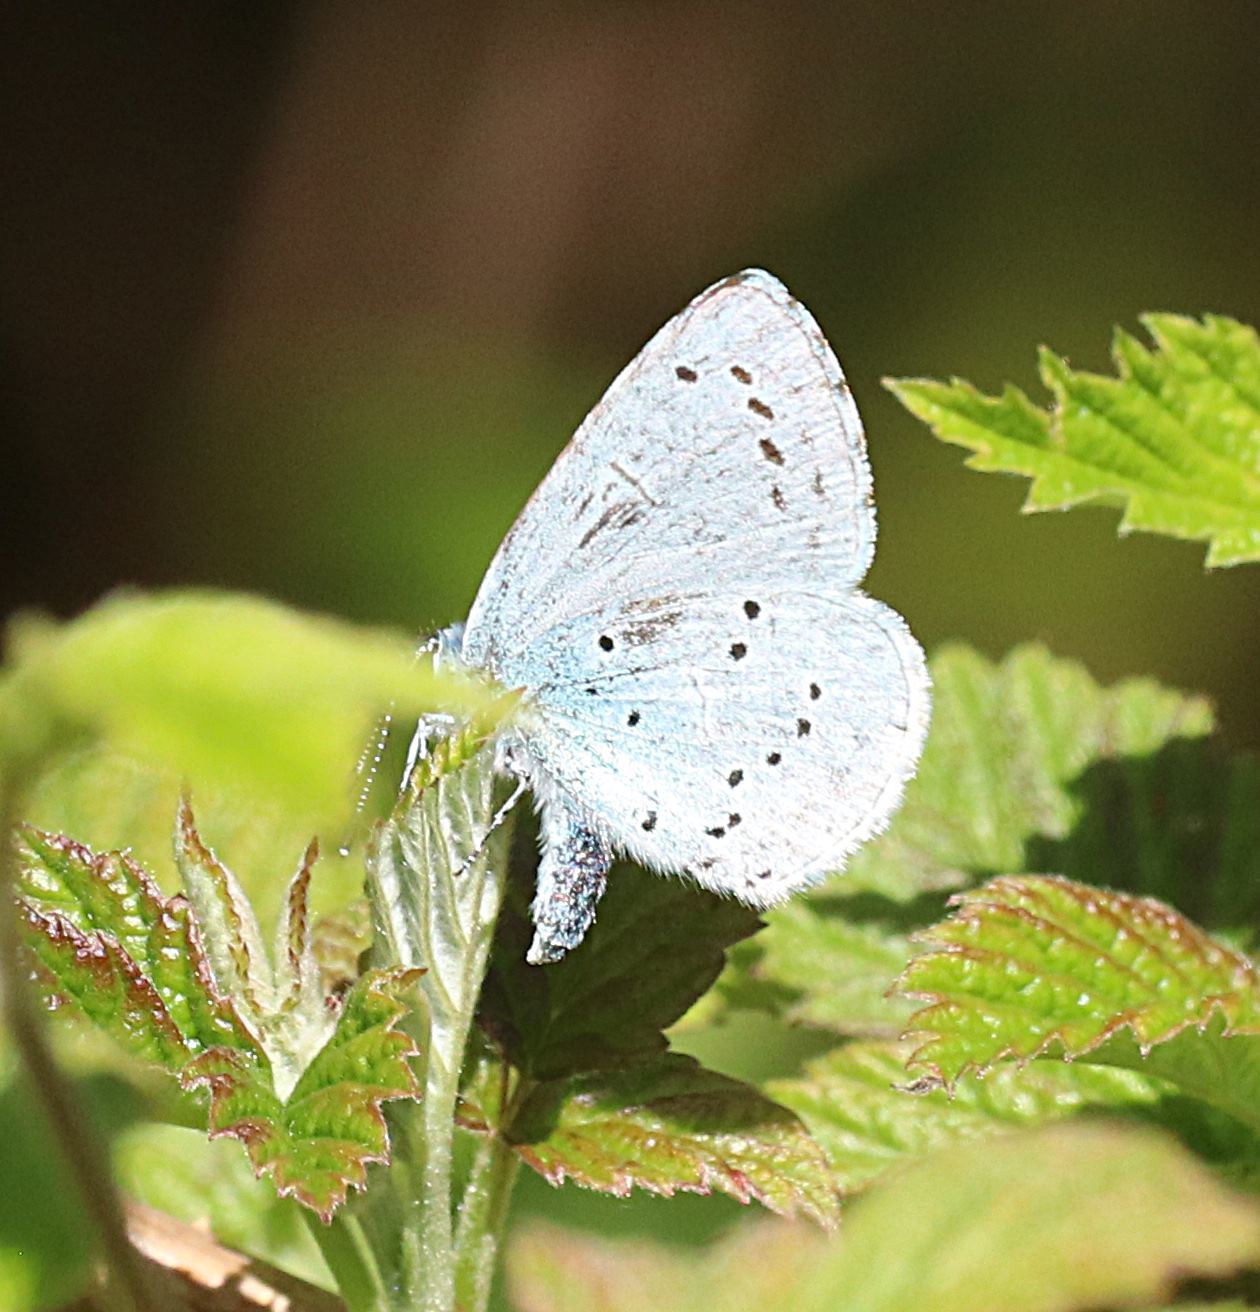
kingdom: Animalia
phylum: Arthropoda
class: Insecta
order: Lepidoptera
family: Lycaenidae
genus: Celastrina
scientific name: Celastrina argiolus
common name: Holly blue
